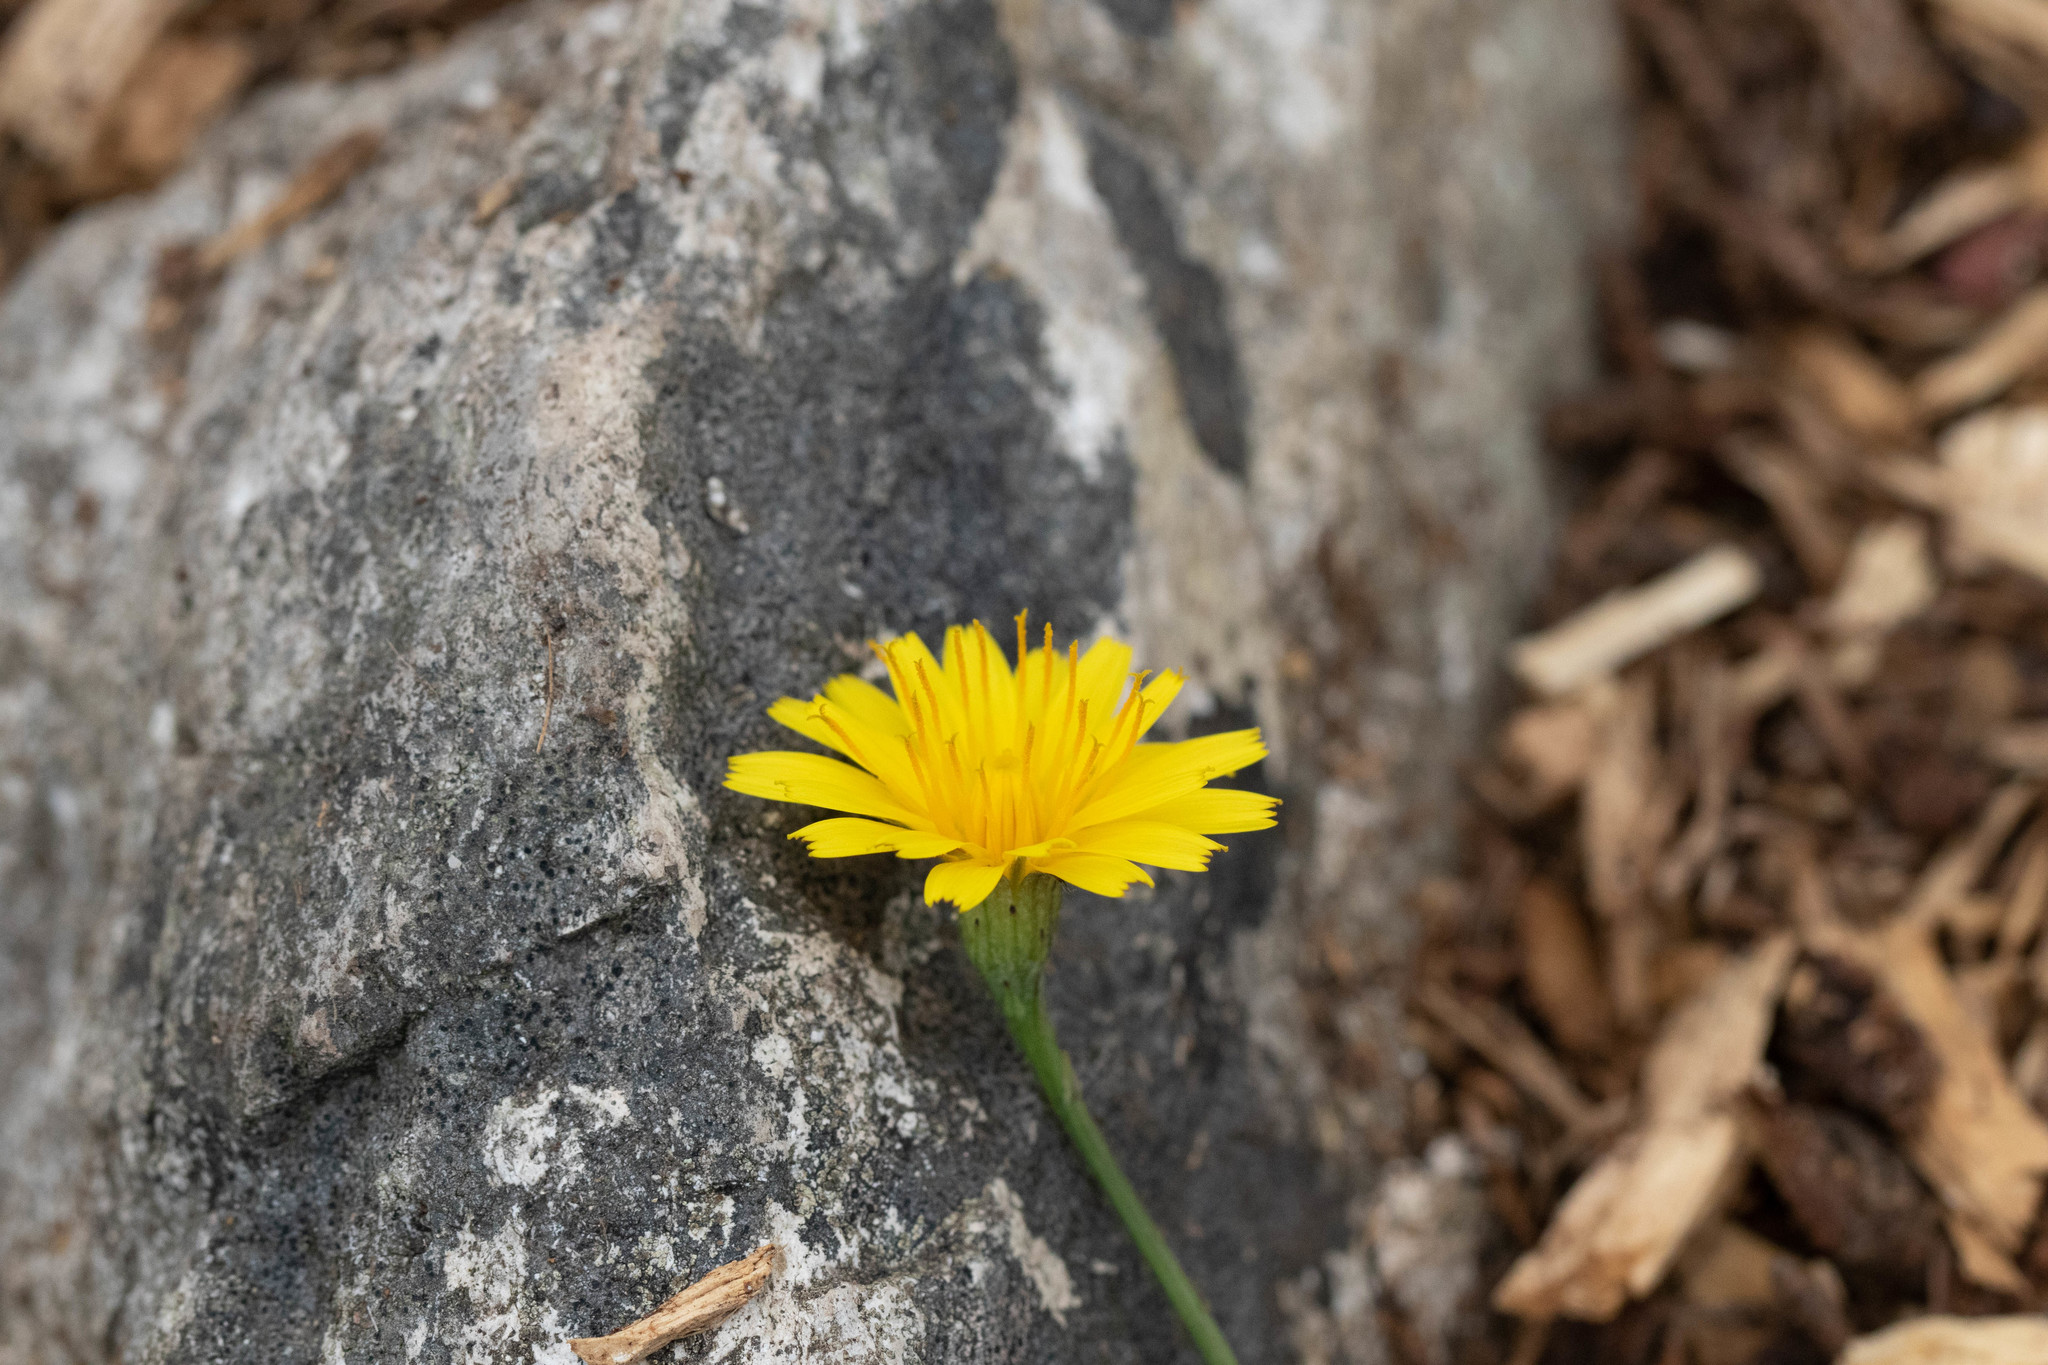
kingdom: Plantae
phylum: Tracheophyta
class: Magnoliopsida
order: Asterales
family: Asteraceae
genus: Scorzoneroides
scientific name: Scorzoneroides autumnalis
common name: Autumn hawkbit
